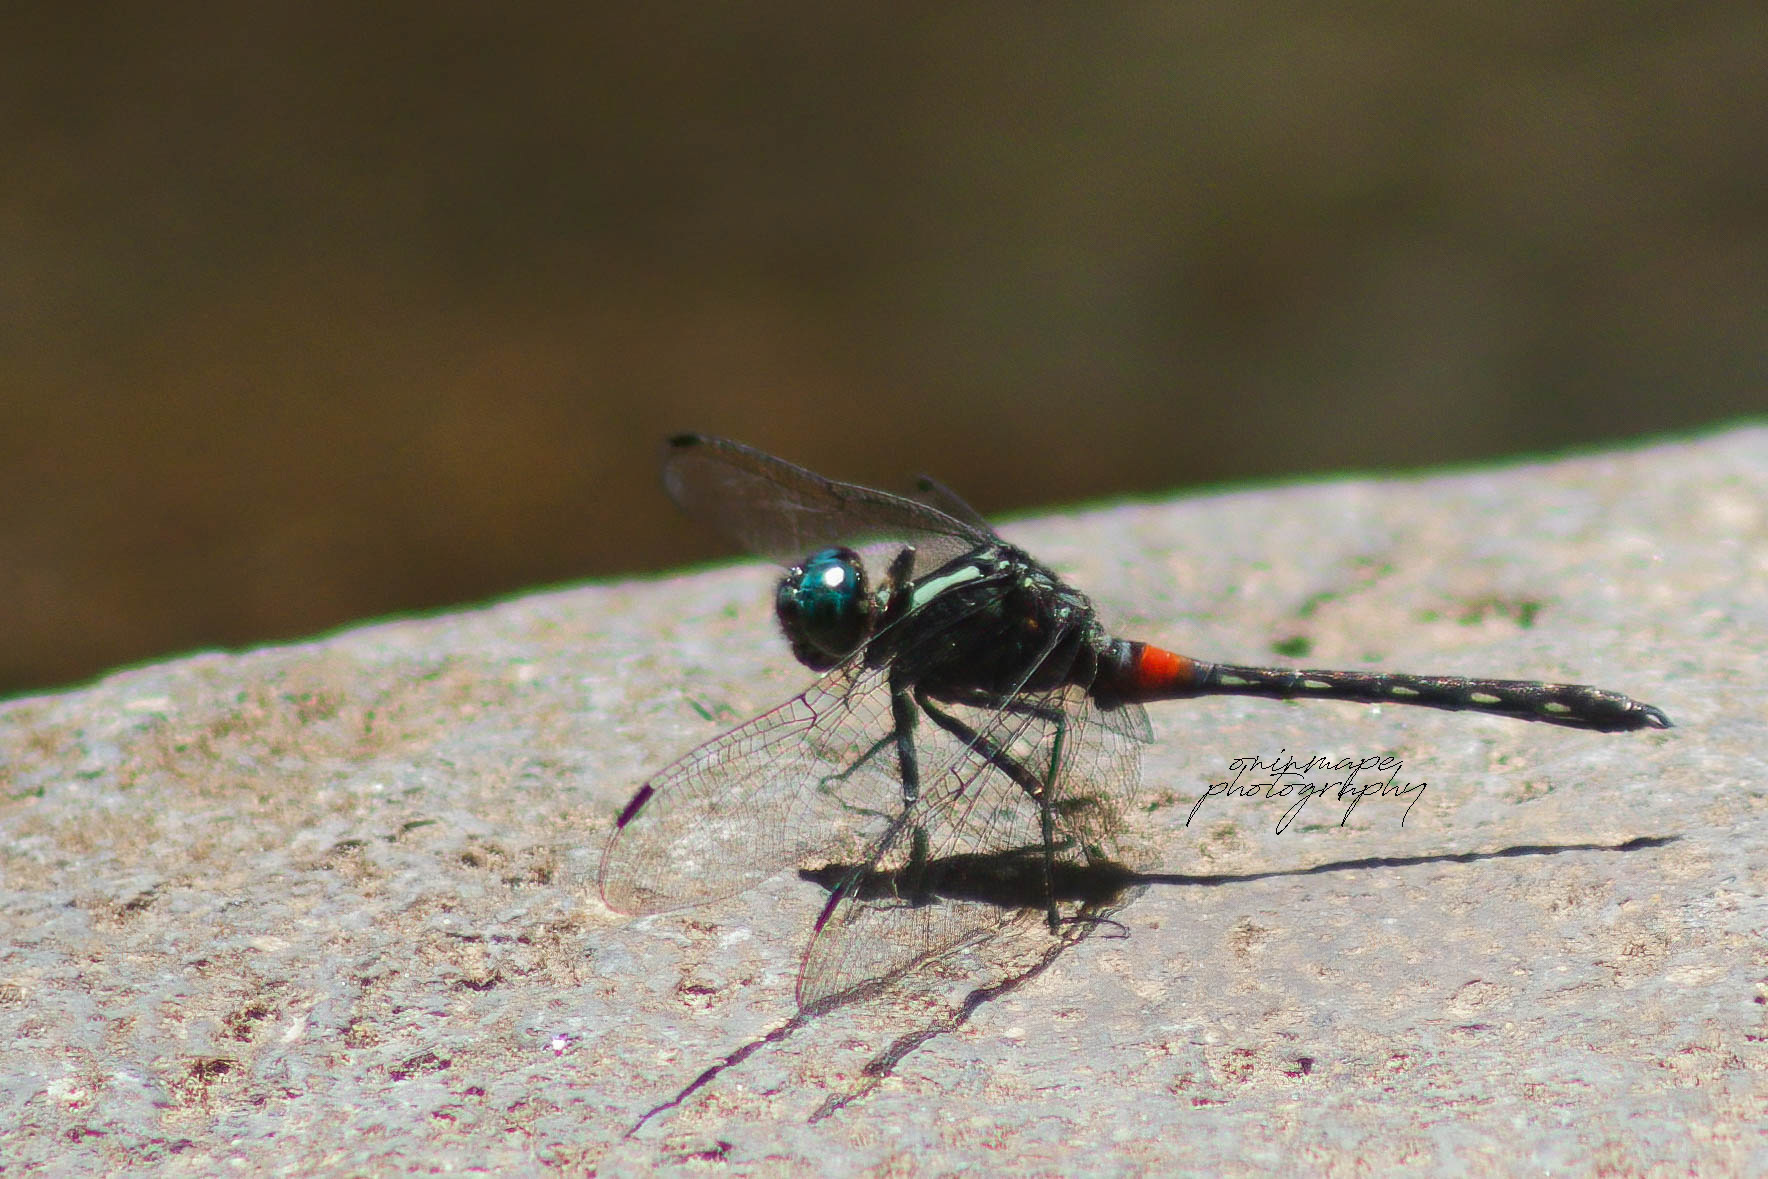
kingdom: Animalia
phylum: Arthropoda
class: Insecta
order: Odonata
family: Libellulidae
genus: Diplacina
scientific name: Diplacina bolivari
